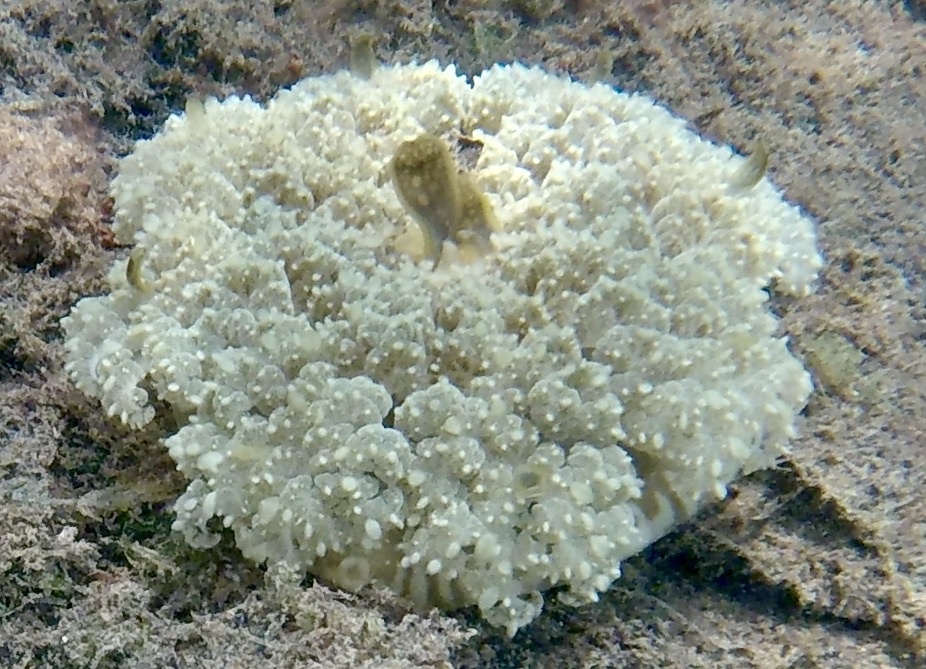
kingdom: Animalia
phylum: Cnidaria
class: Scyphozoa
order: Rhizostomeae
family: Cassiopeidae
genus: Cassiopea
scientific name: Cassiopea andromeda
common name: Upside-down jellyfish
